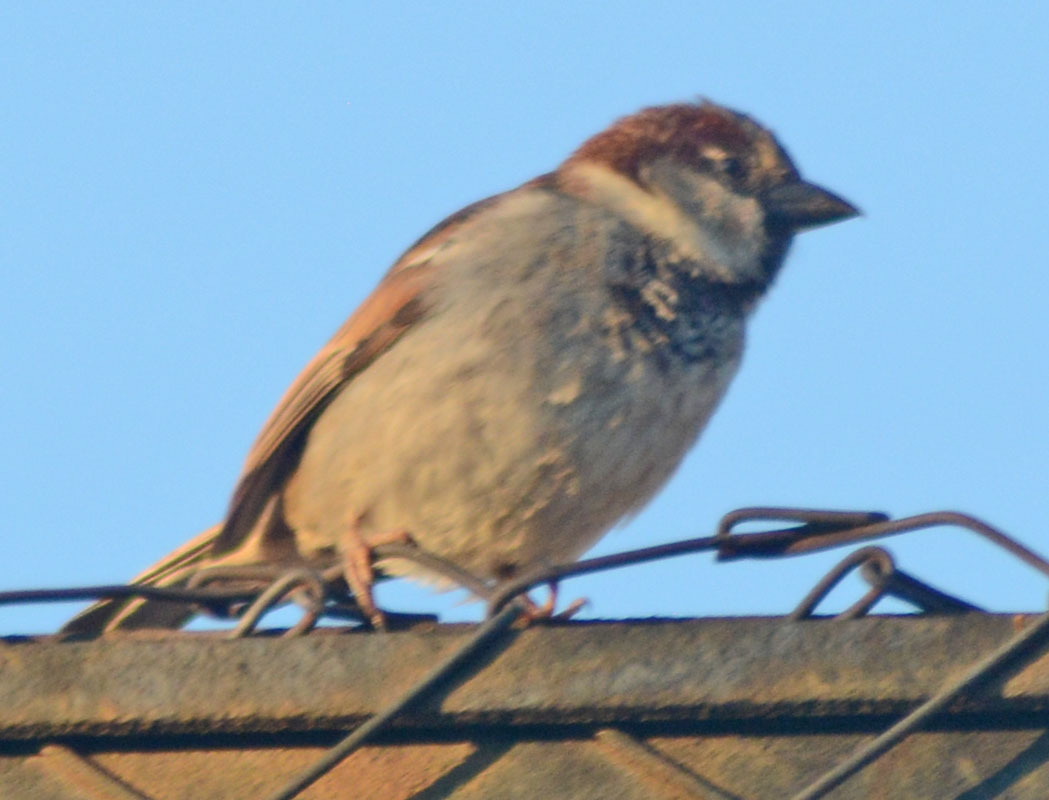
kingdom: Animalia
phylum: Chordata
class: Aves
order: Passeriformes
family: Passeridae
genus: Passer
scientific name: Passer domesticus
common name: House sparrow
